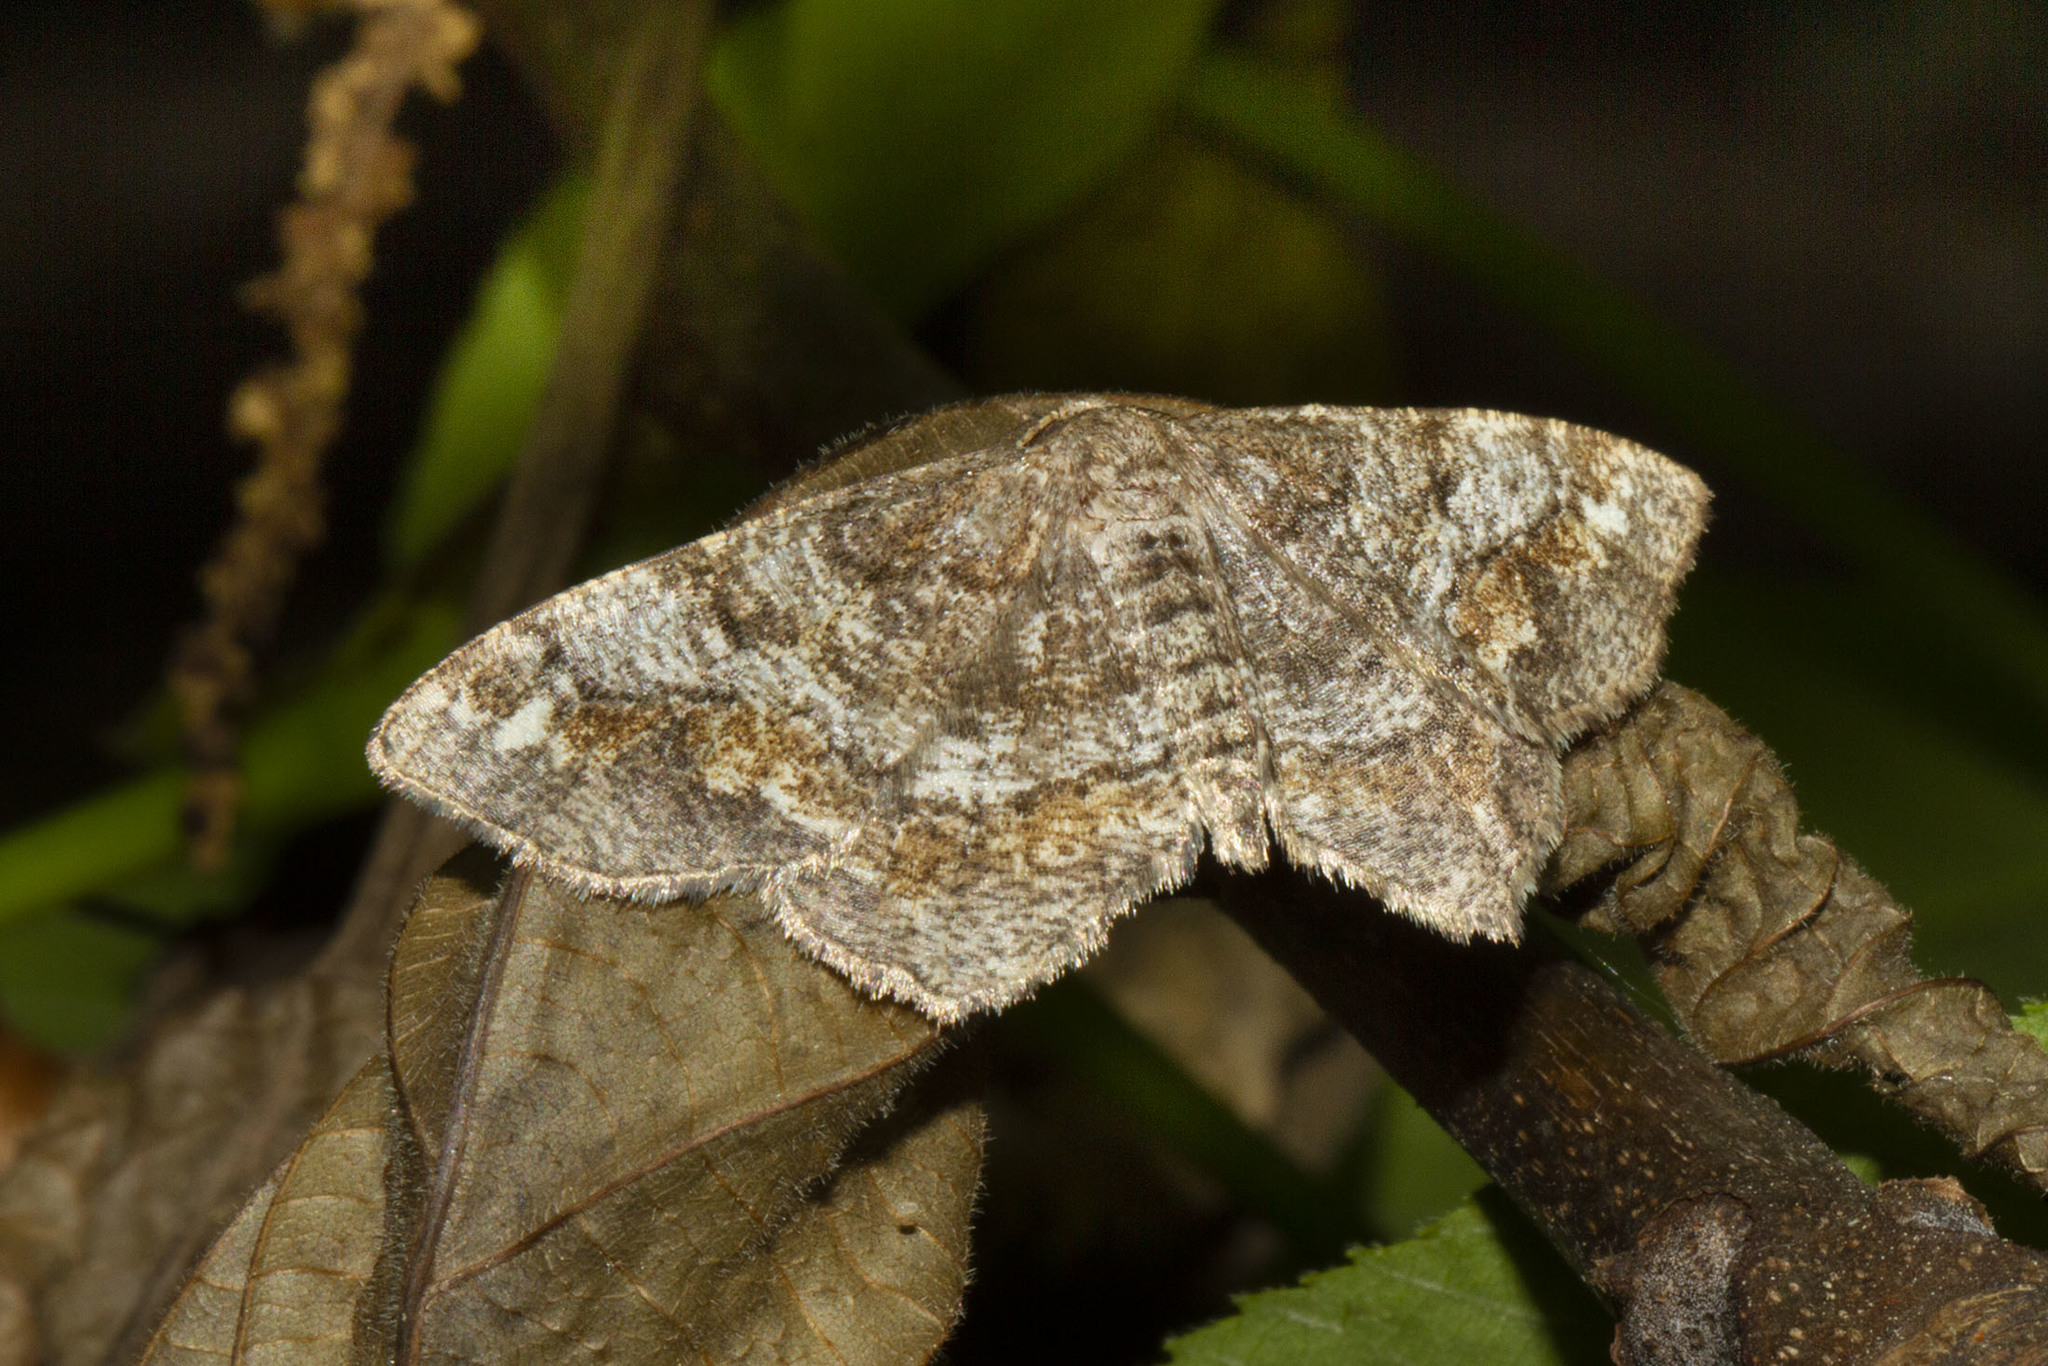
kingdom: Animalia
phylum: Arthropoda
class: Insecta
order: Lepidoptera
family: Geometridae
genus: Hypagyrtis
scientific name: Hypagyrtis unipunctata
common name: One-spotted variant
